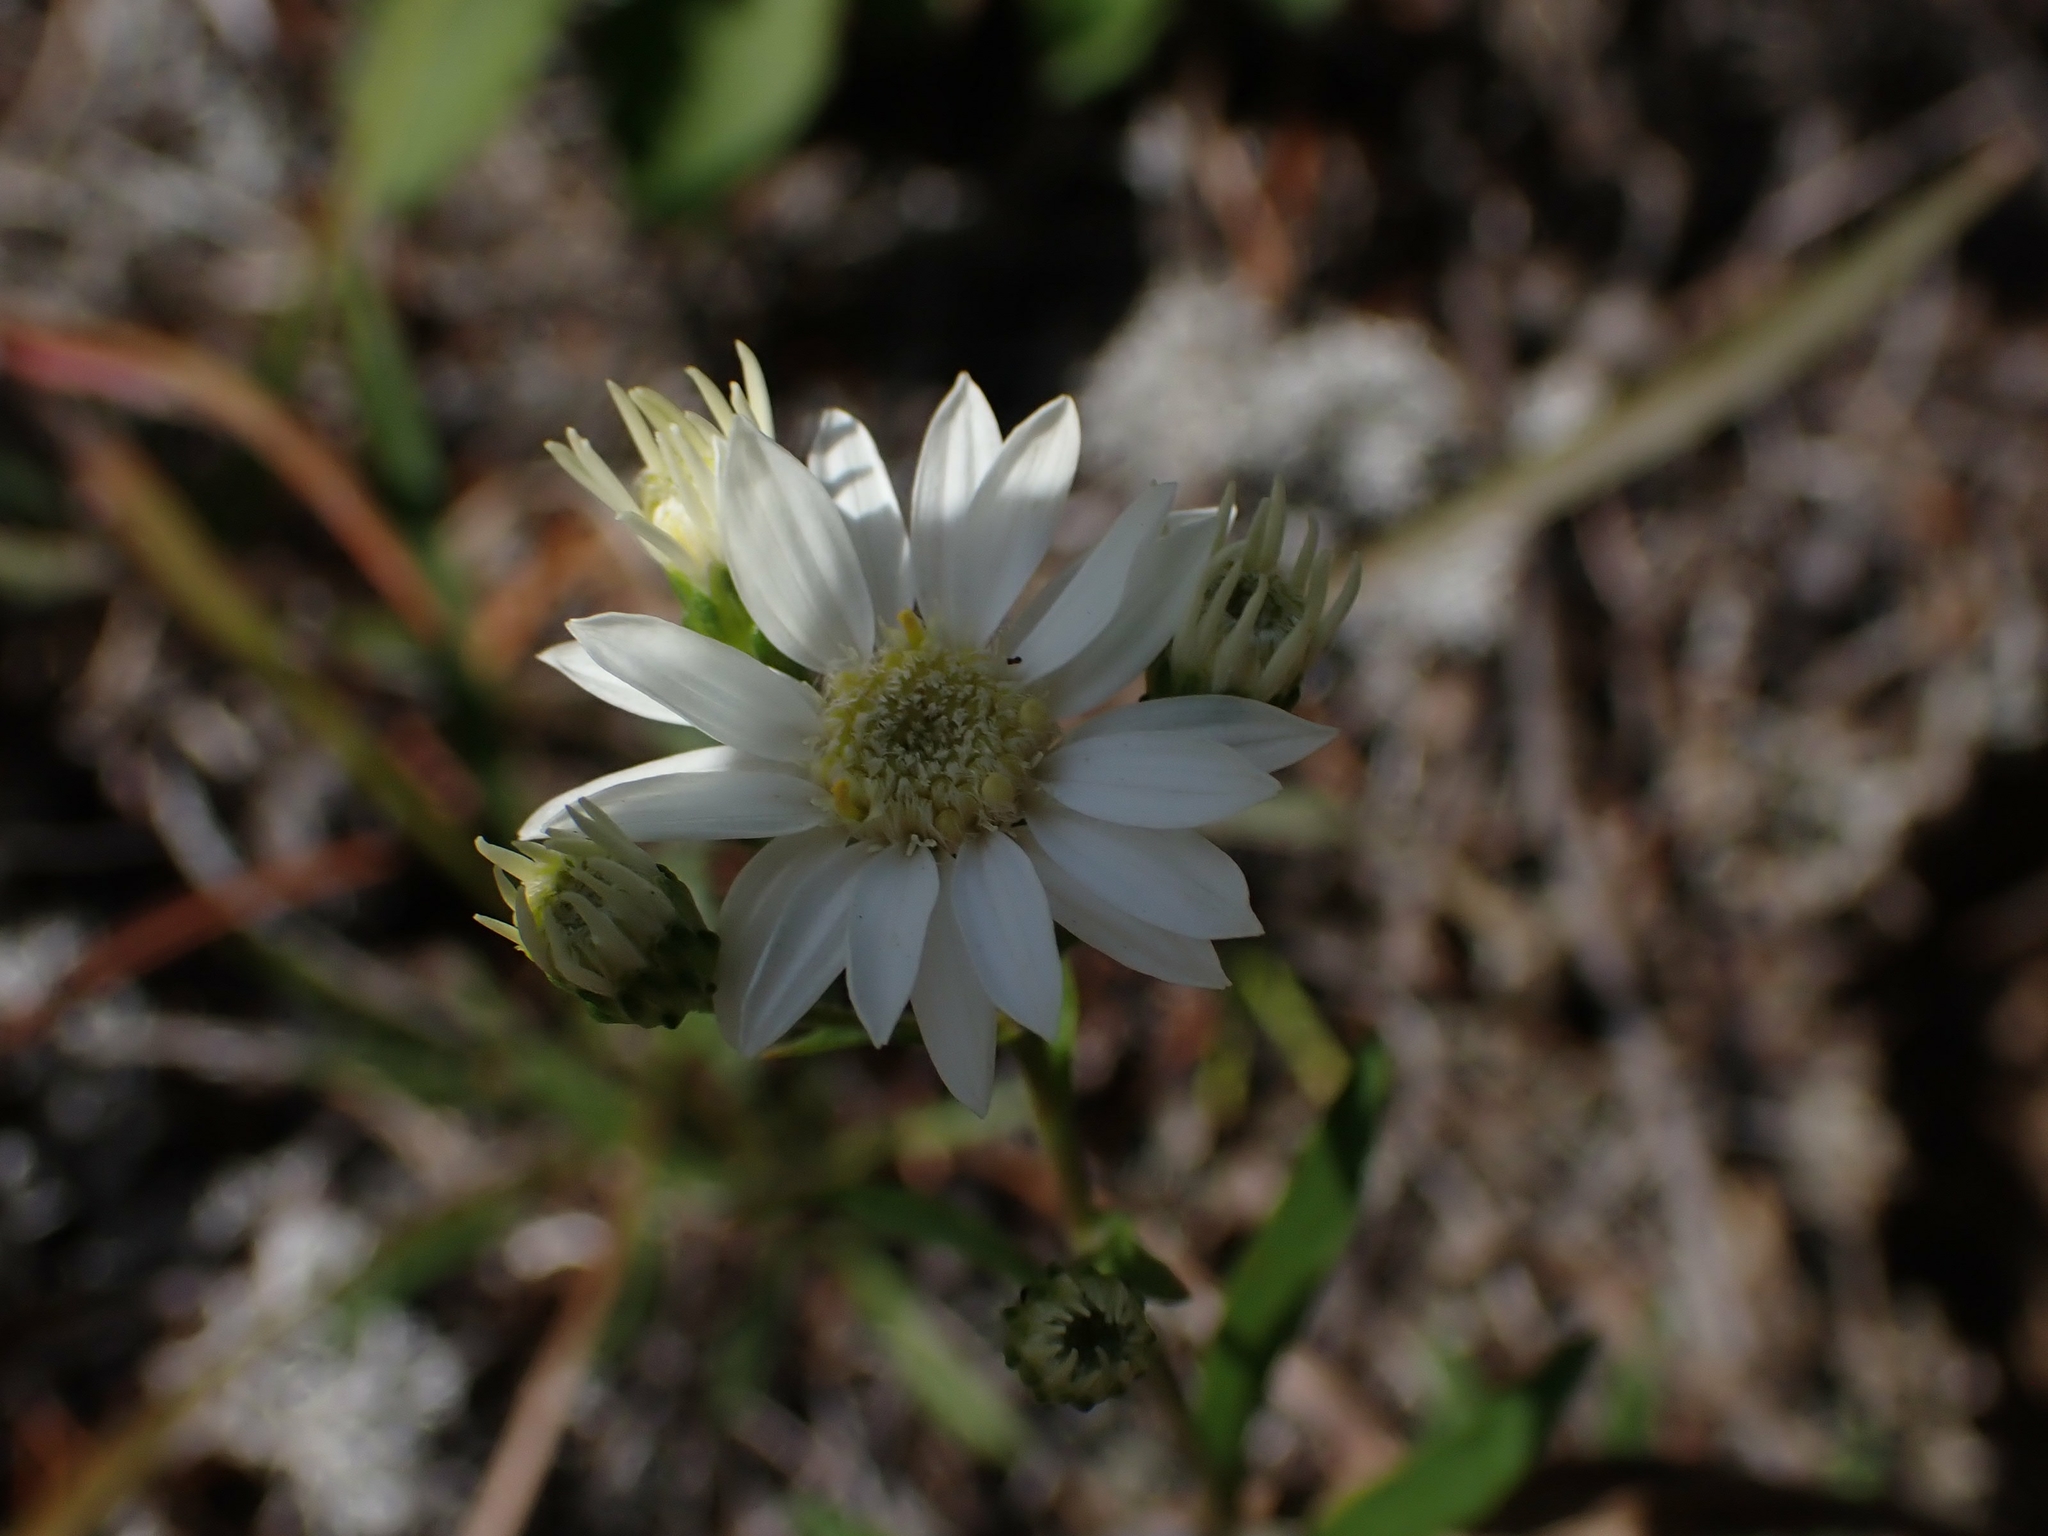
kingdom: Plantae
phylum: Tracheophyta
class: Magnoliopsida
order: Asterales
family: Asteraceae
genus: Solidago
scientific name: Solidago ptarmicoides
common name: White flat-top goldenrod
